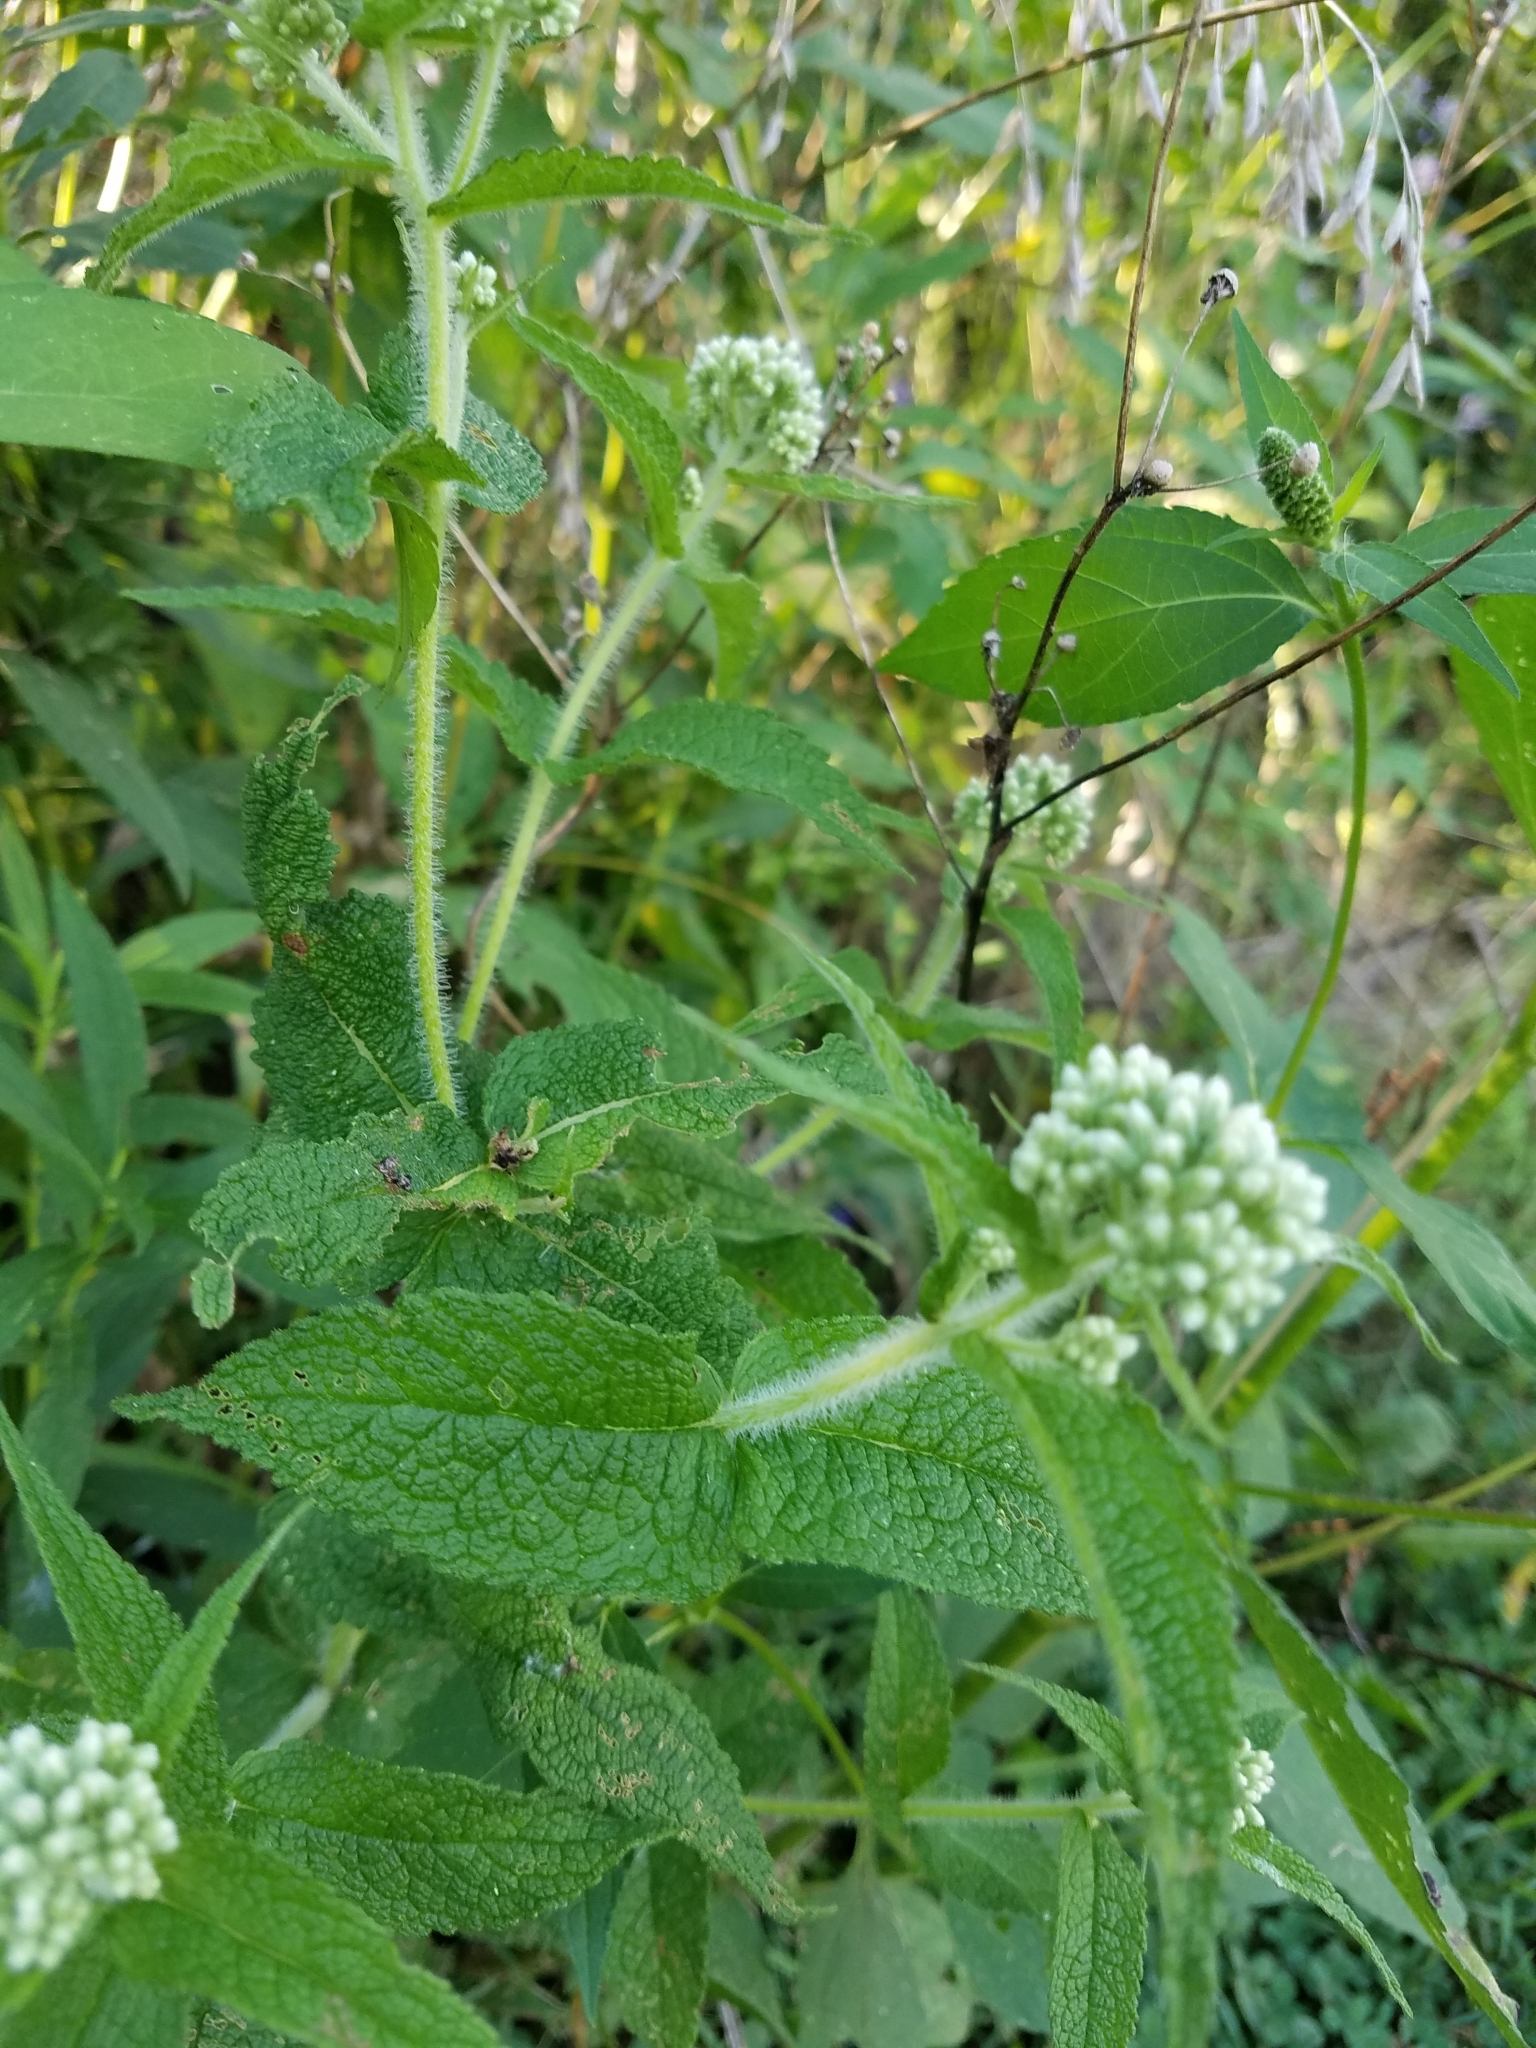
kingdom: Plantae
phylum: Tracheophyta
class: Magnoliopsida
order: Asterales
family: Asteraceae
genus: Eupatorium
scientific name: Eupatorium perfoliatum
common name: Boneset
